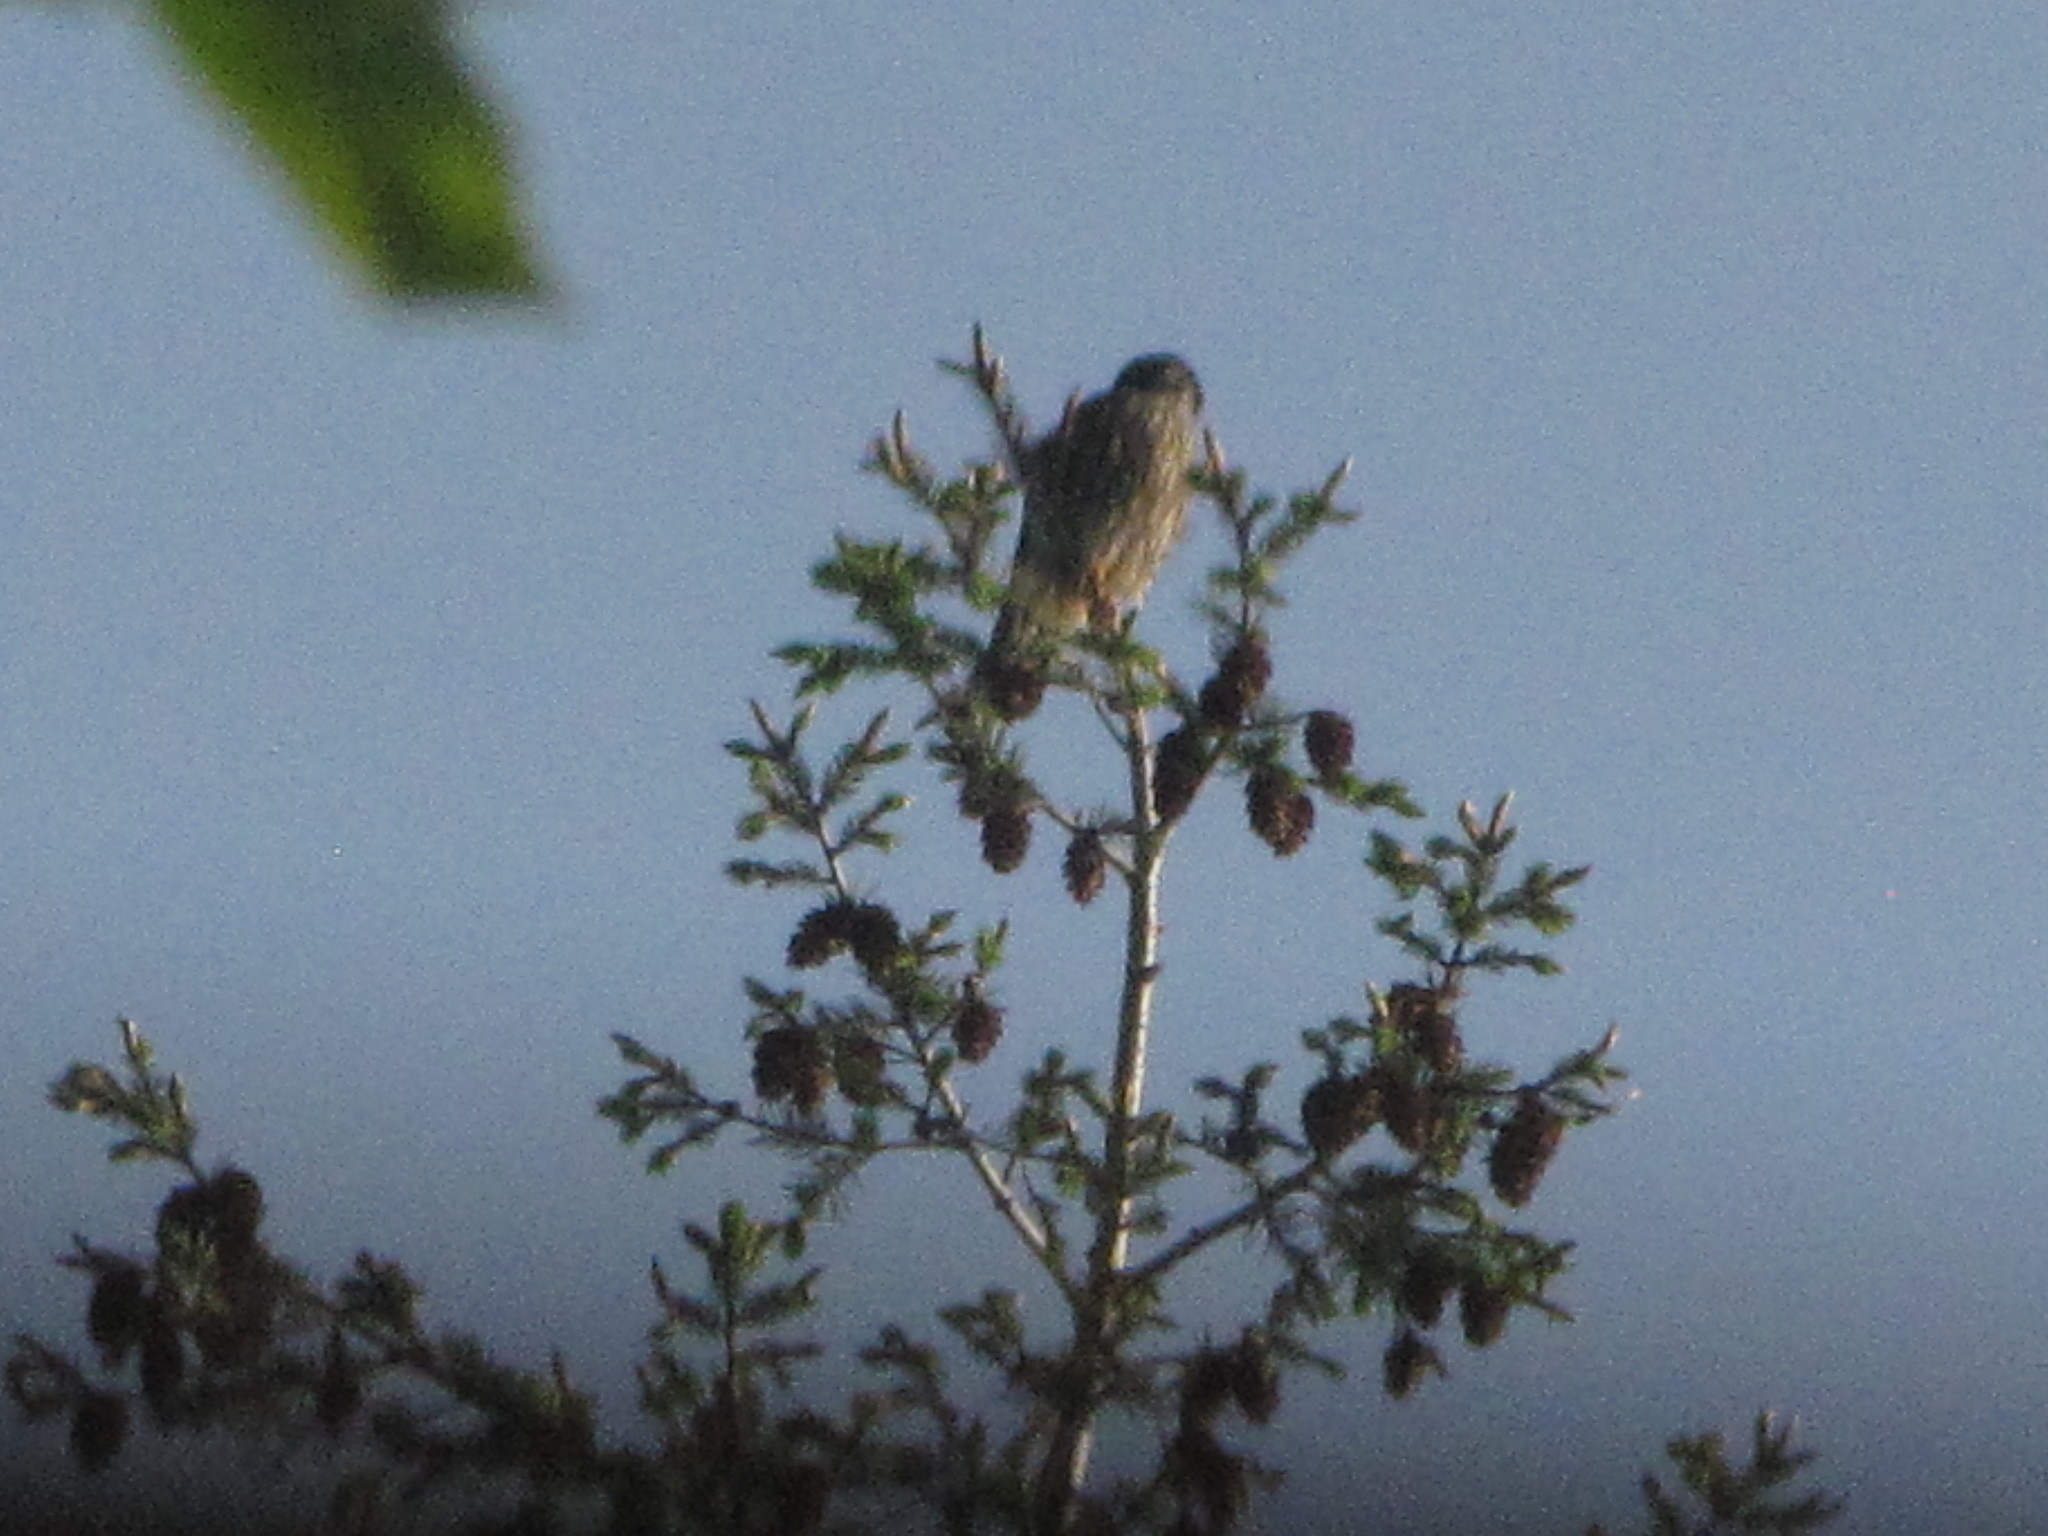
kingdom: Animalia
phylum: Chordata
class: Aves
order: Falconiformes
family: Falconidae
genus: Falco
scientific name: Falco columbarius
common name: Merlin
